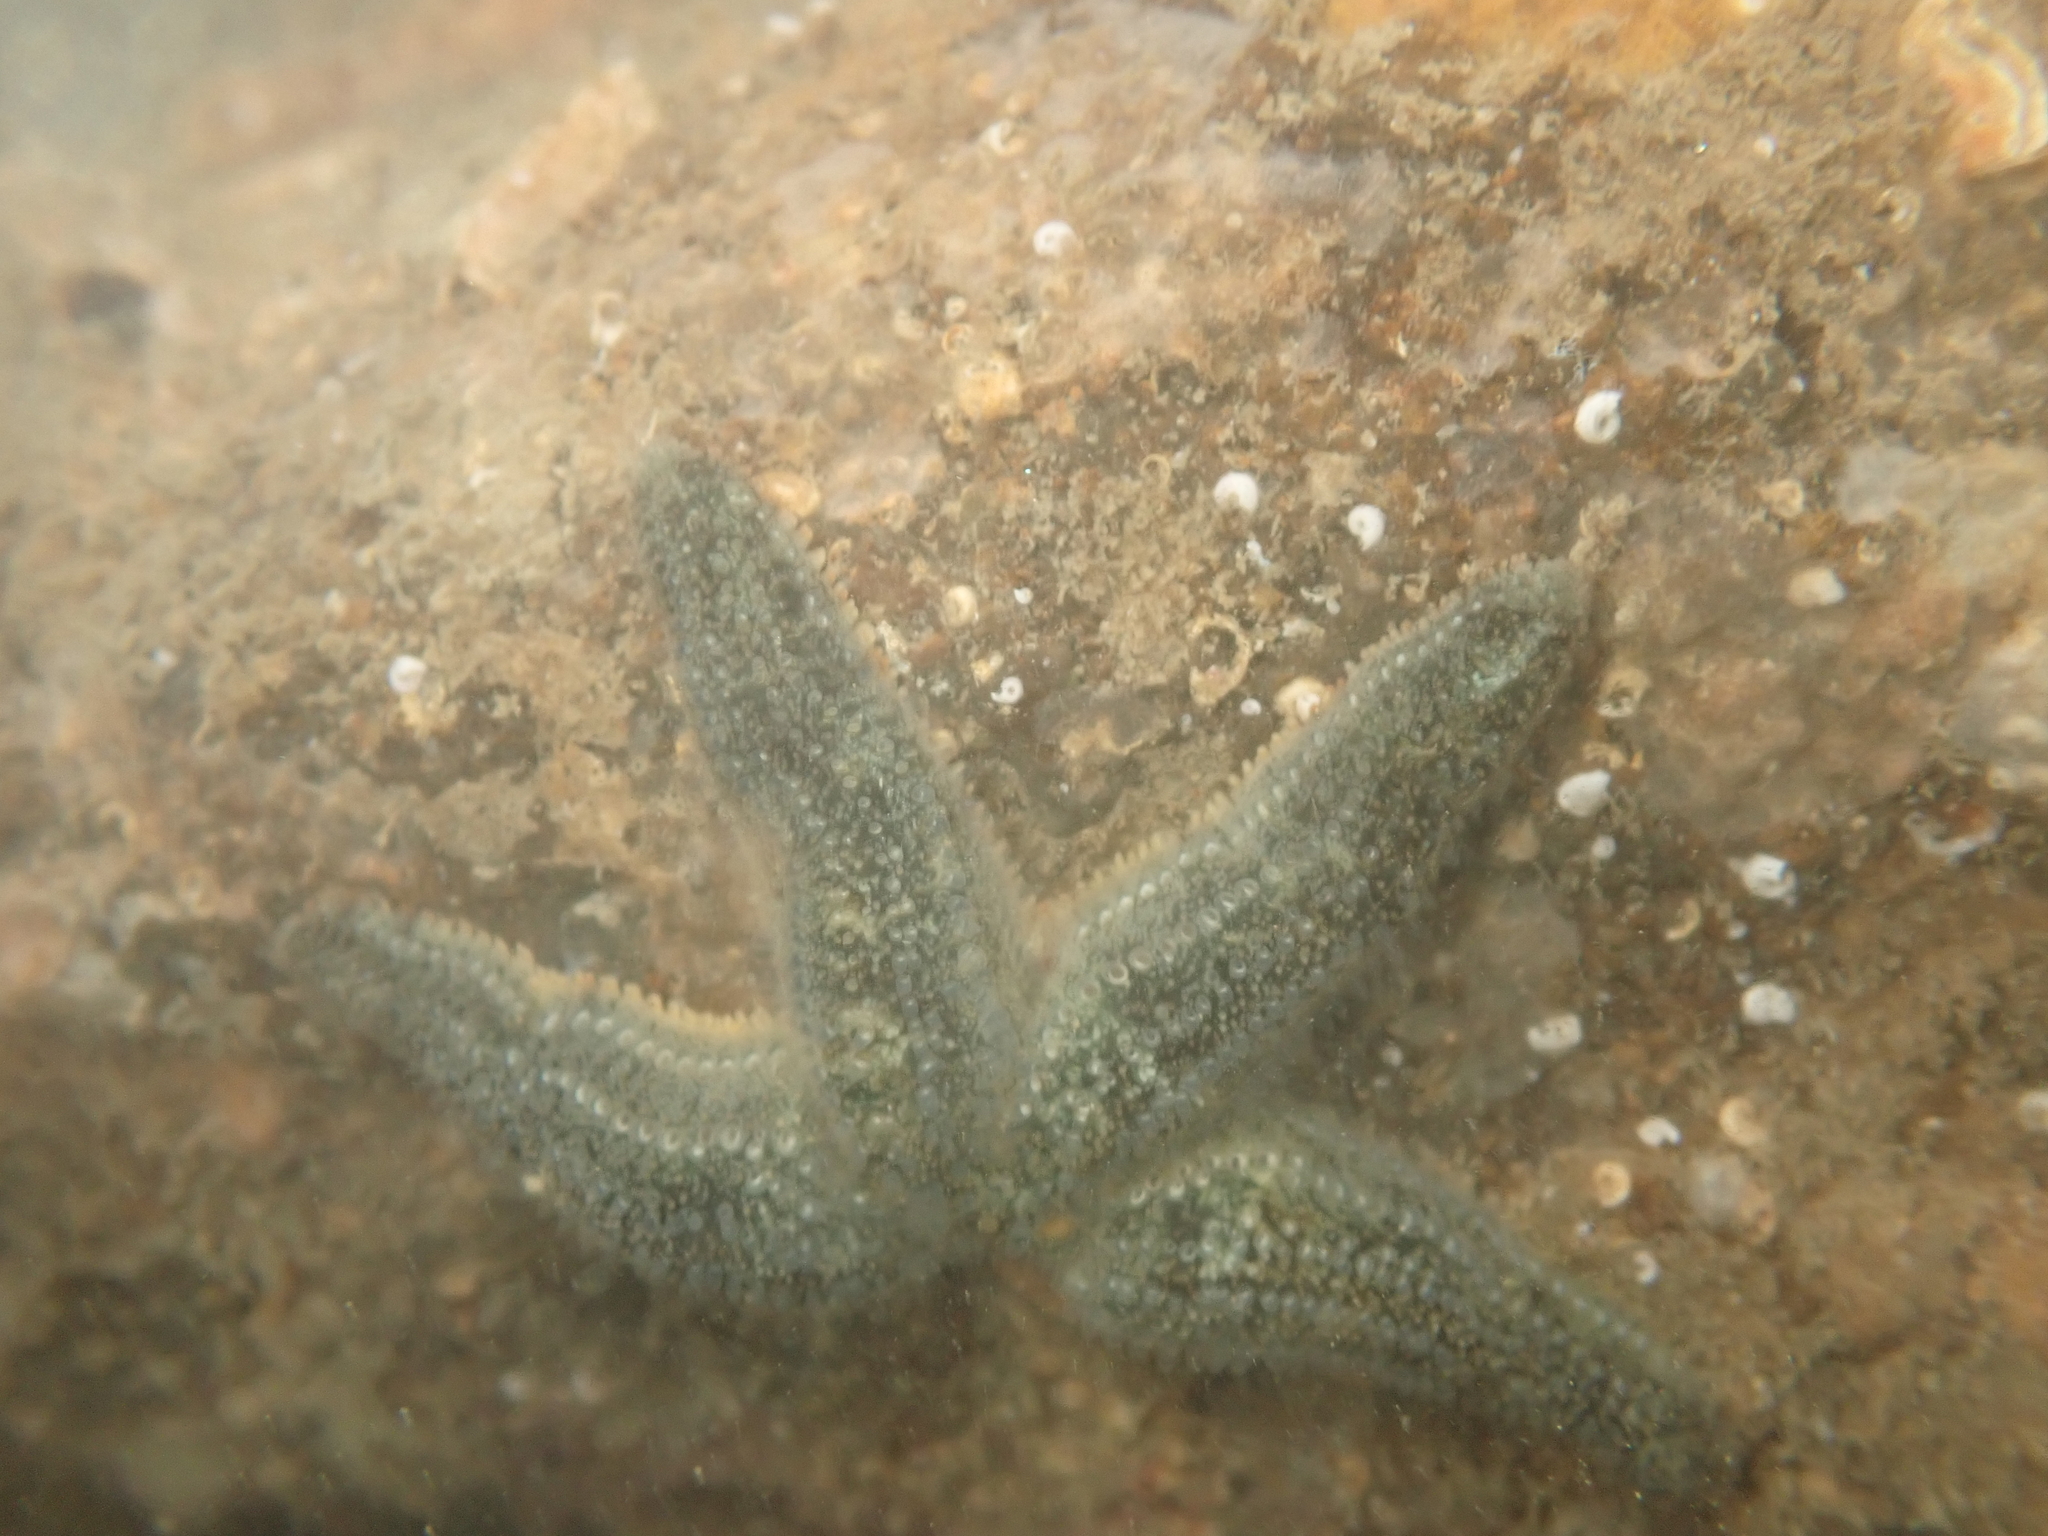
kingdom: Animalia
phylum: Echinodermata
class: Asteroidea
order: Forcipulatida
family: Stichasteridae
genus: Allostichaster
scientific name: Allostichaster polyplax
